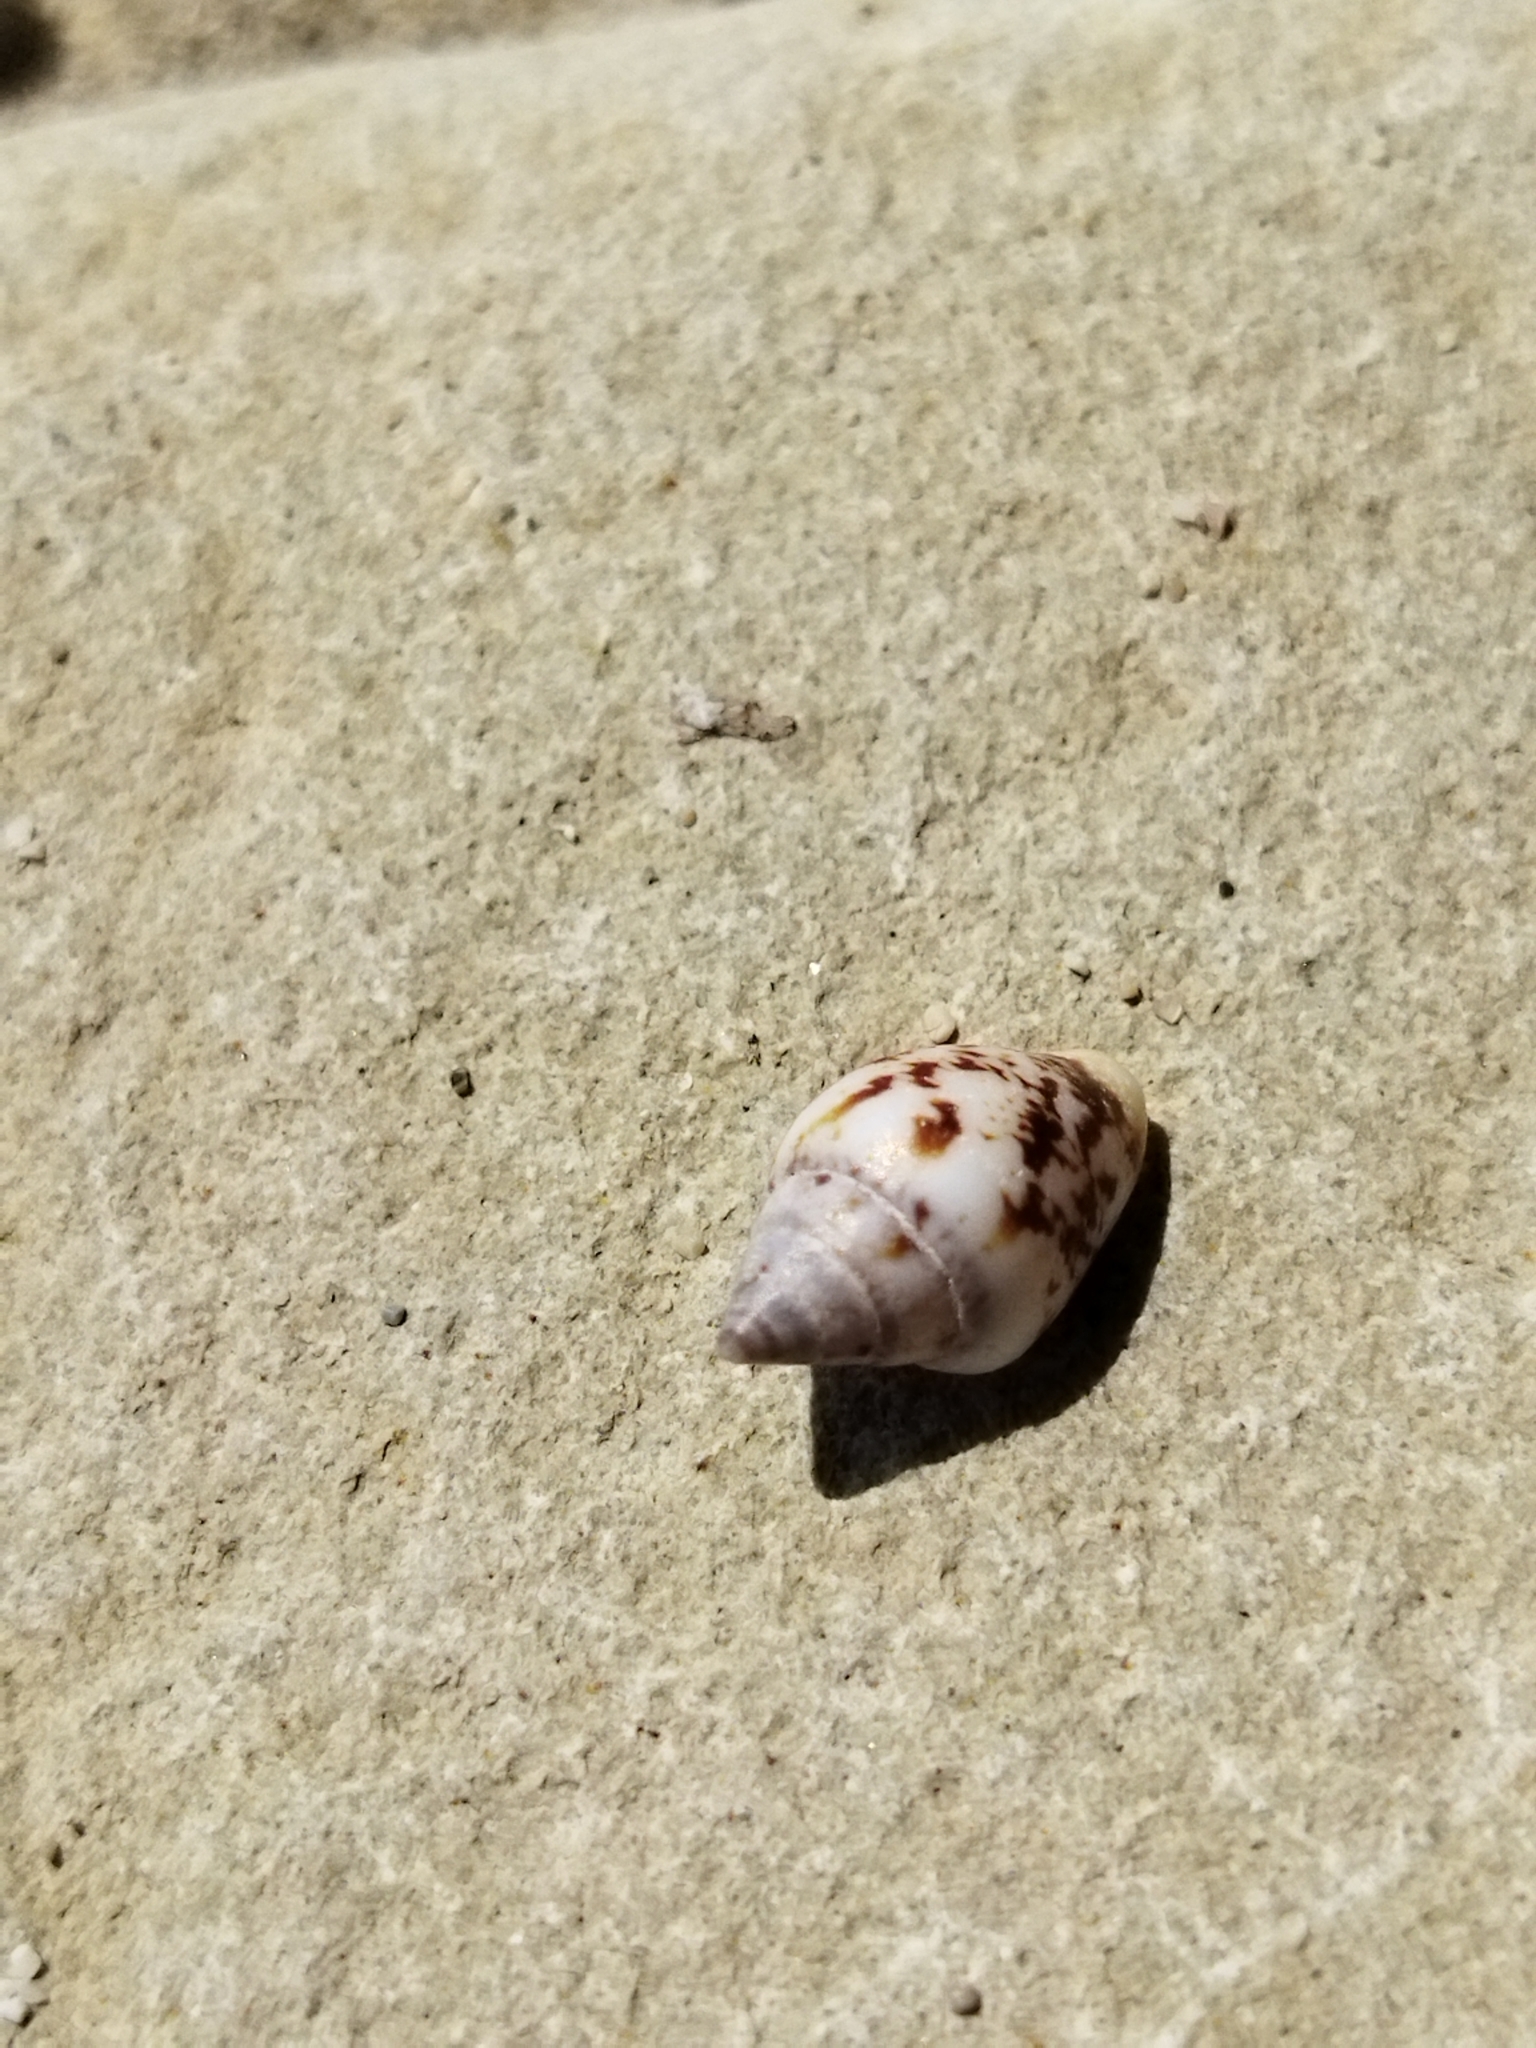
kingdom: Animalia
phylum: Mollusca
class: Gastropoda
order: Neogastropoda
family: Columbellidae
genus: Columbella
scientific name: Columbella rustica
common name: Rustic dove shell
